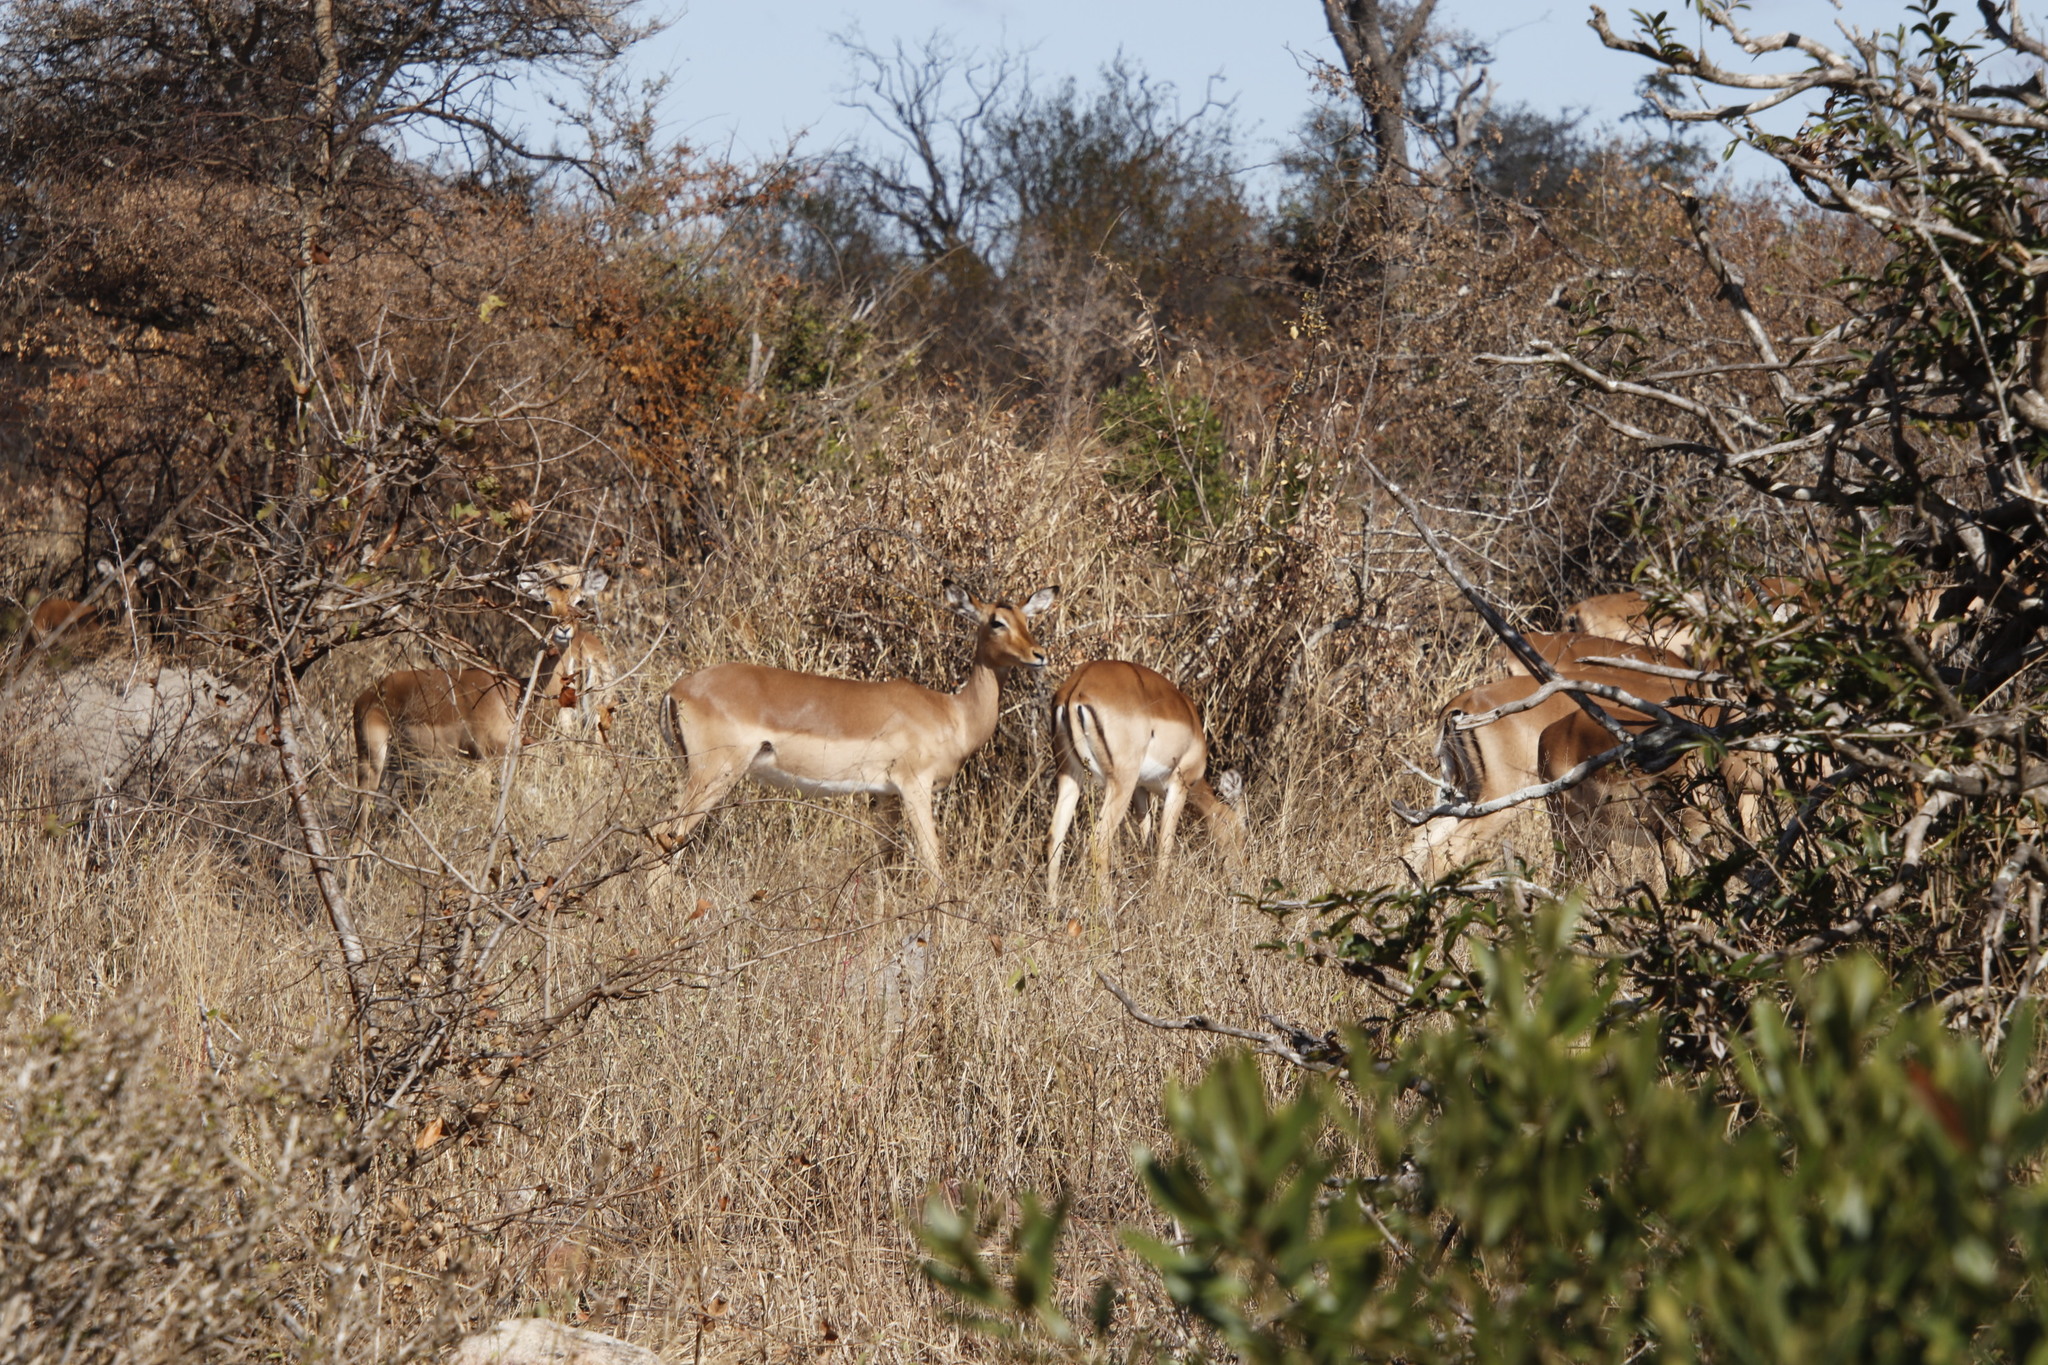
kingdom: Animalia
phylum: Chordata
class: Mammalia
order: Artiodactyla
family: Bovidae
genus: Aepyceros
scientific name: Aepyceros melampus
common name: Impala
